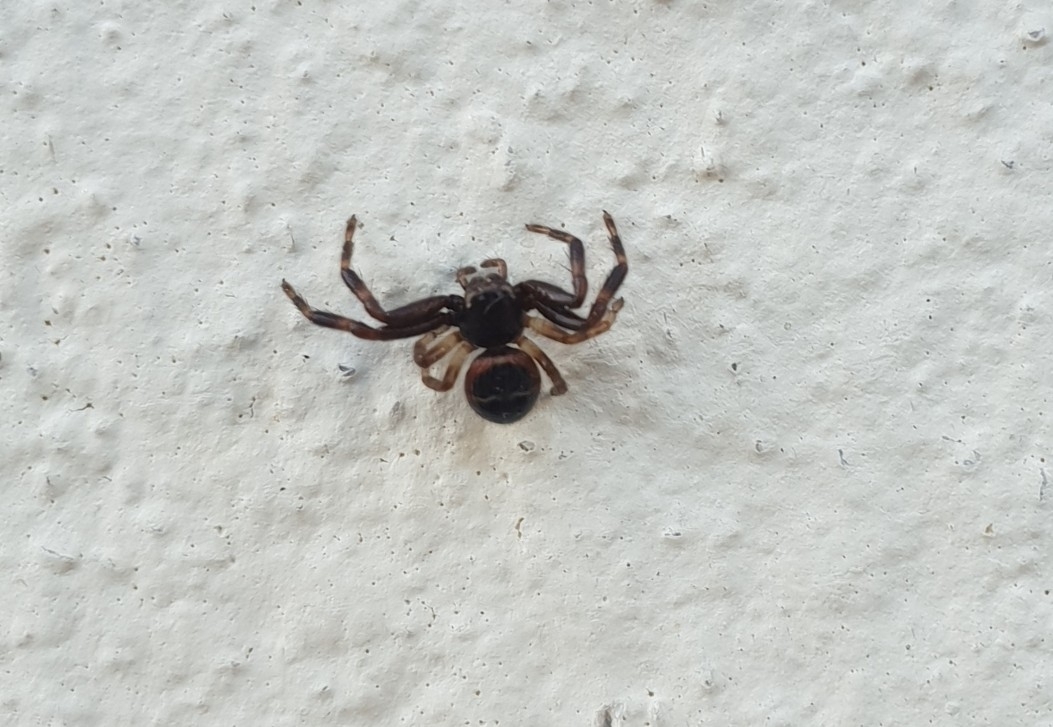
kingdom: Animalia
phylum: Arthropoda
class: Arachnida
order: Araneae
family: Thomisidae
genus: Synema
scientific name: Synema globosum
